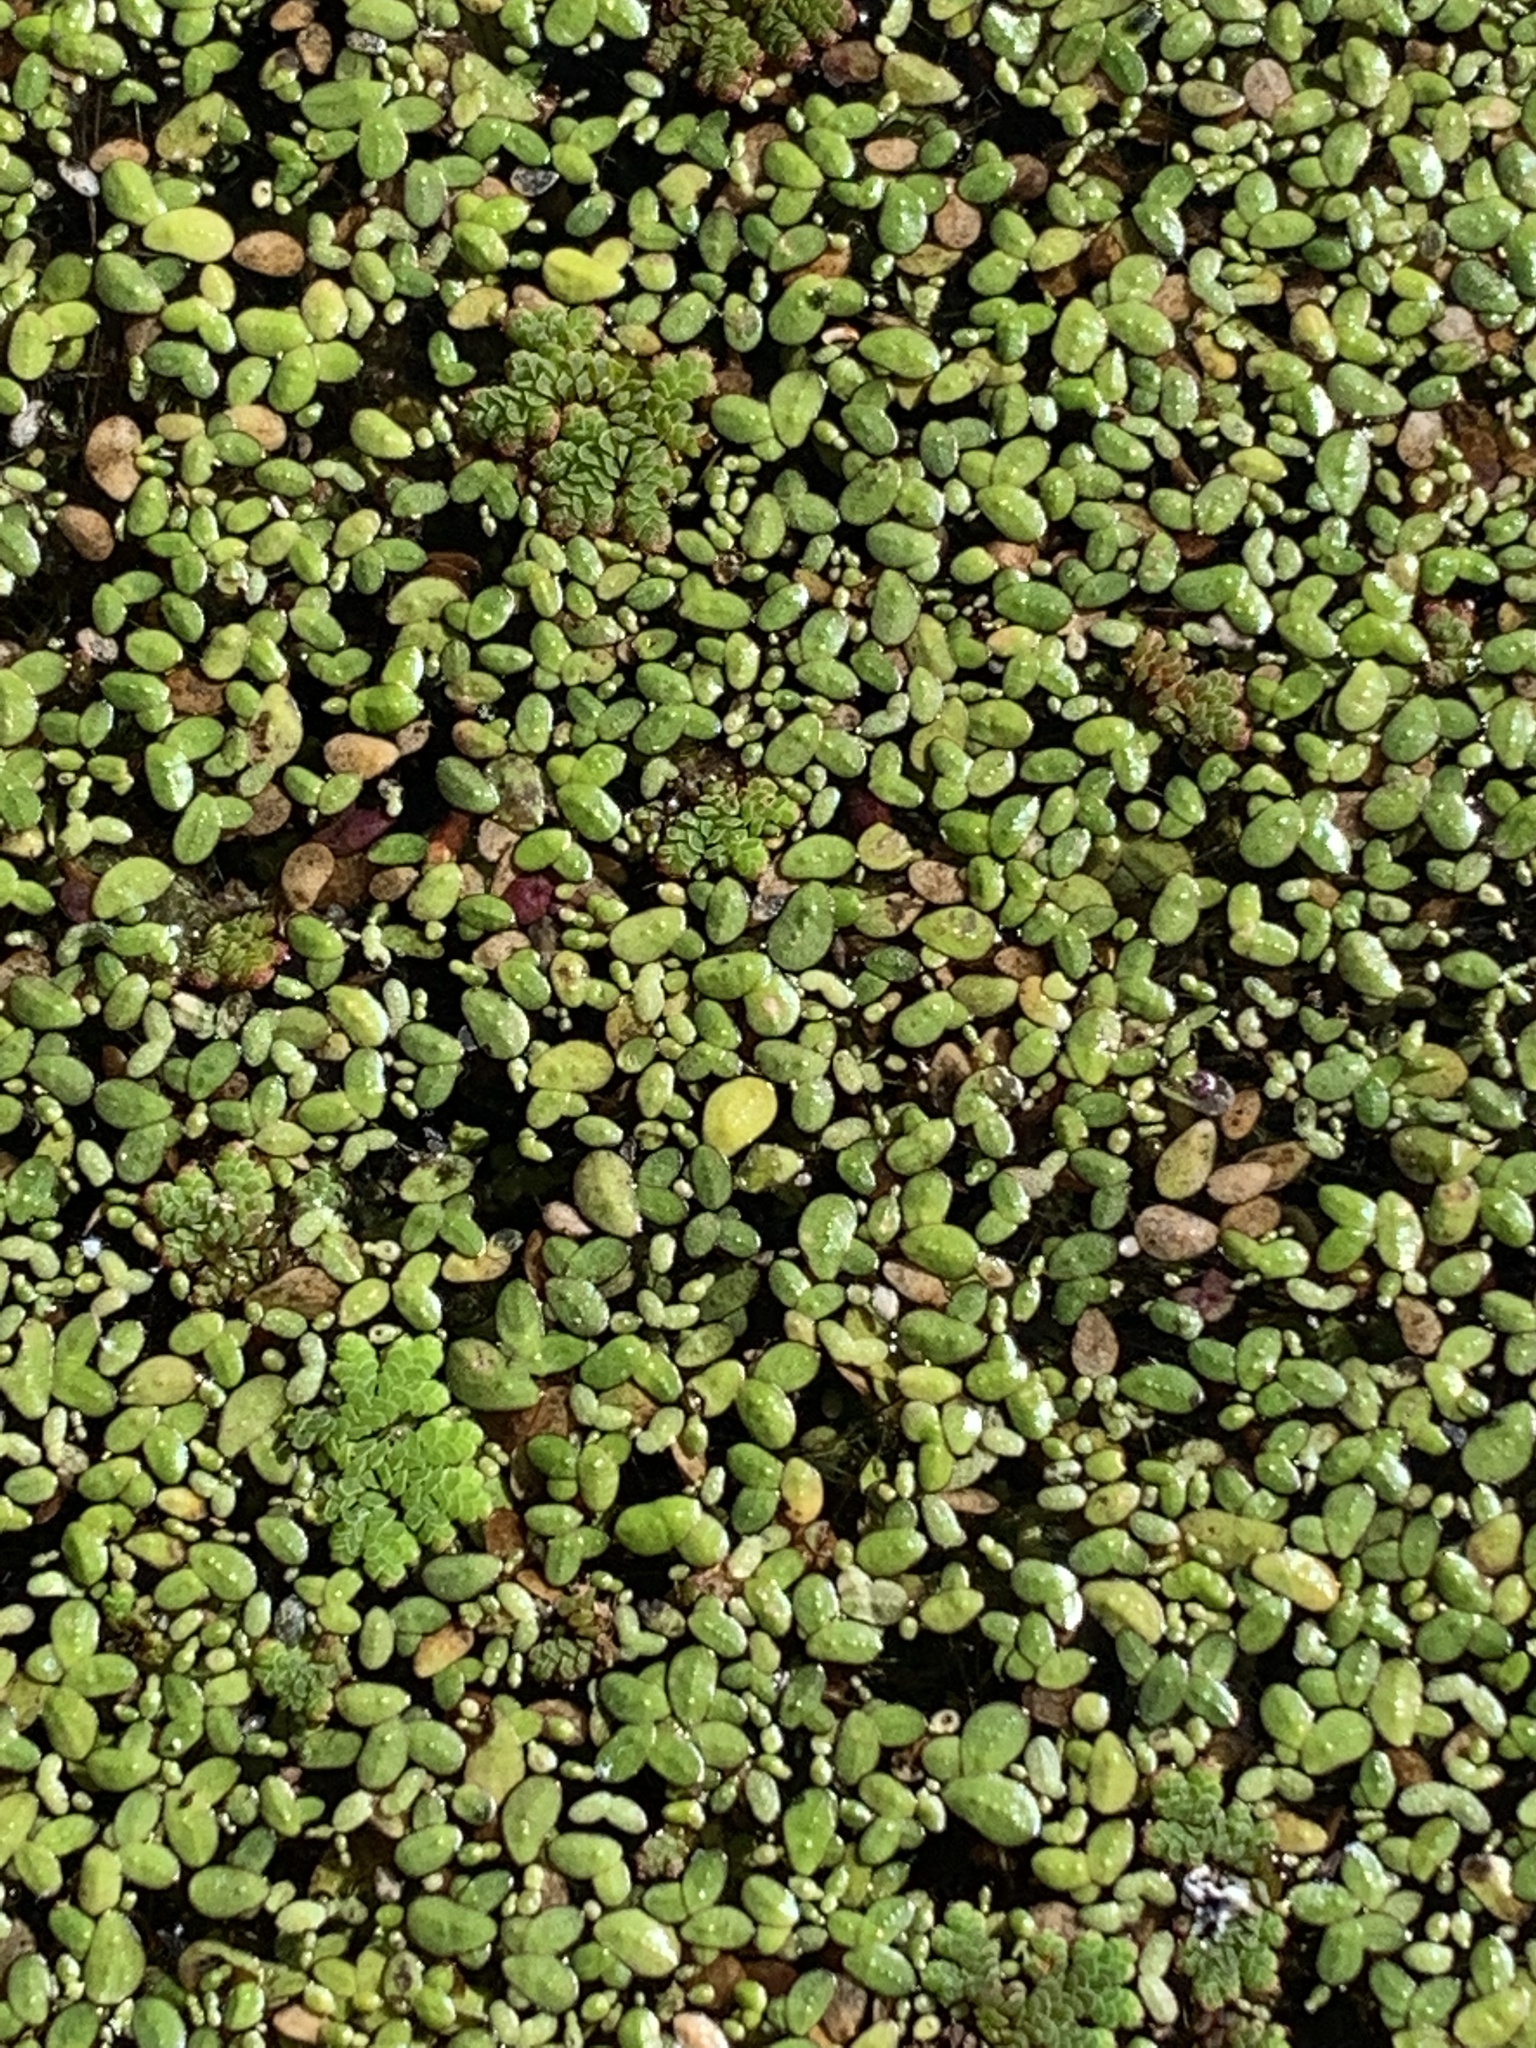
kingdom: Plantae
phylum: Tracheophyta
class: Liliopsida
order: Alismatales
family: Araceae
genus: Lemna
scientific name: Lemna minor
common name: Common duckweed
